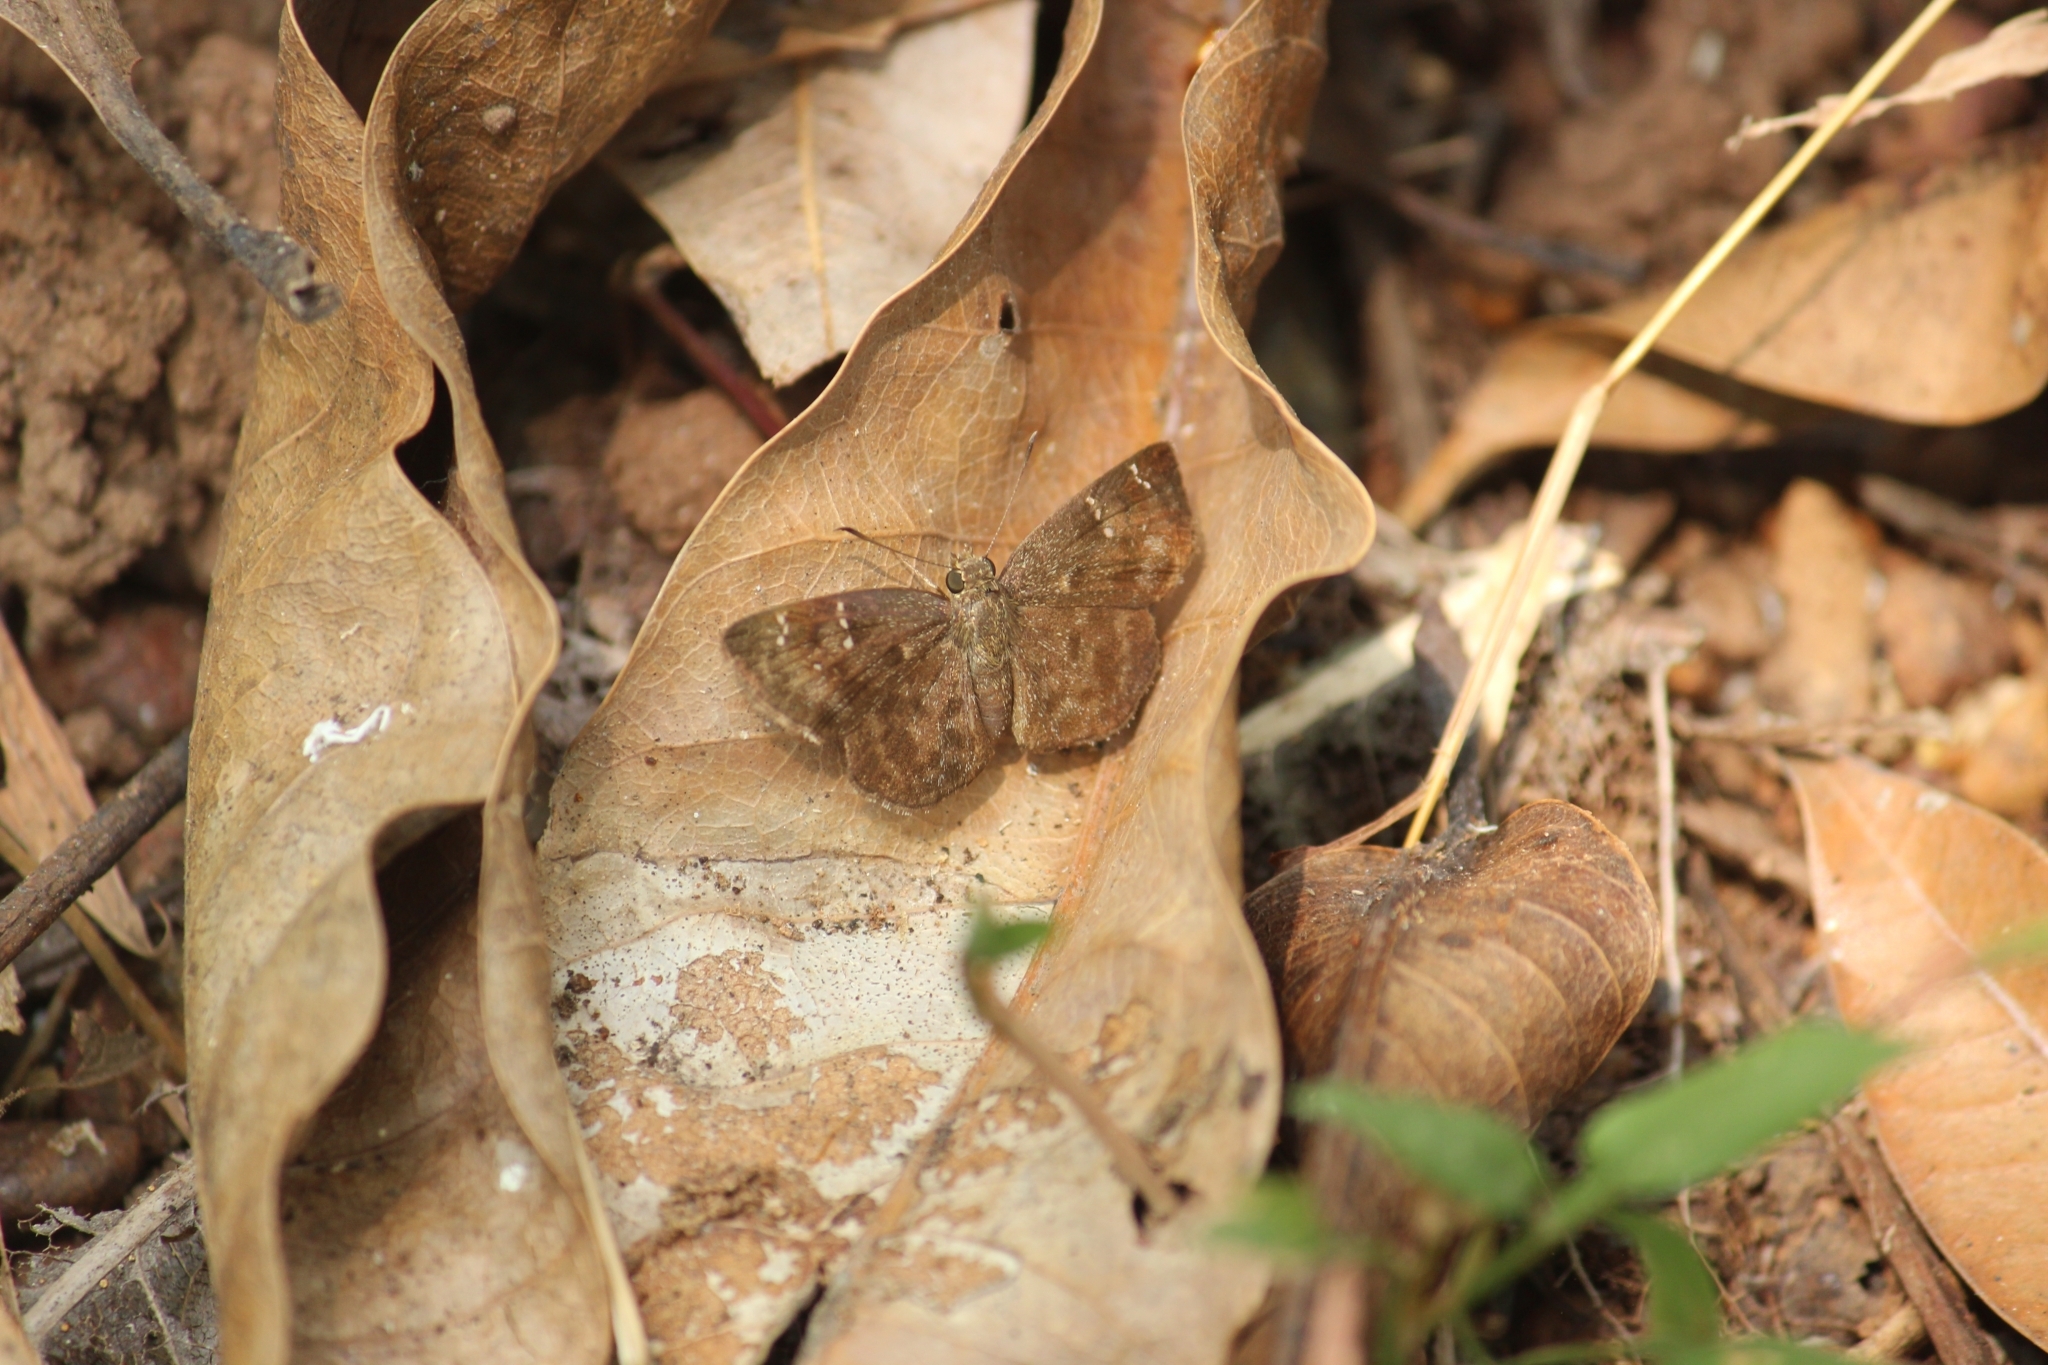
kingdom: Animalia
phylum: Arthropoda
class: Insecta
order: Lepidoptera
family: Hesperiidae
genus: Sarangesa
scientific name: Sarangesa dasahara
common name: Common small flat
